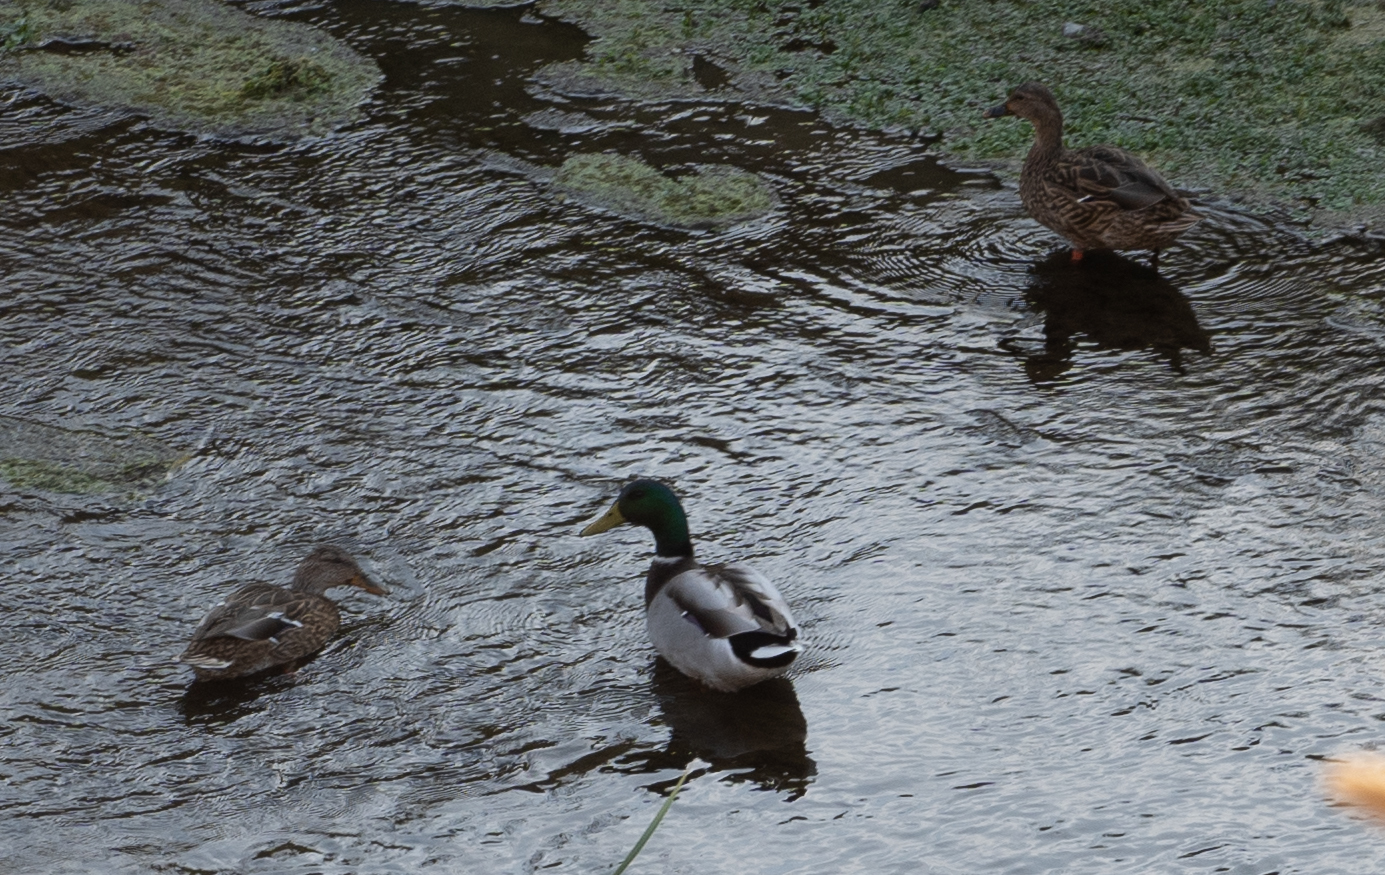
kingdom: Animalia
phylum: Chordata
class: Aves
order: Anseriformes
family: Anatidae
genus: Anas
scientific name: Anas platyrhynchos
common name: Mallard
